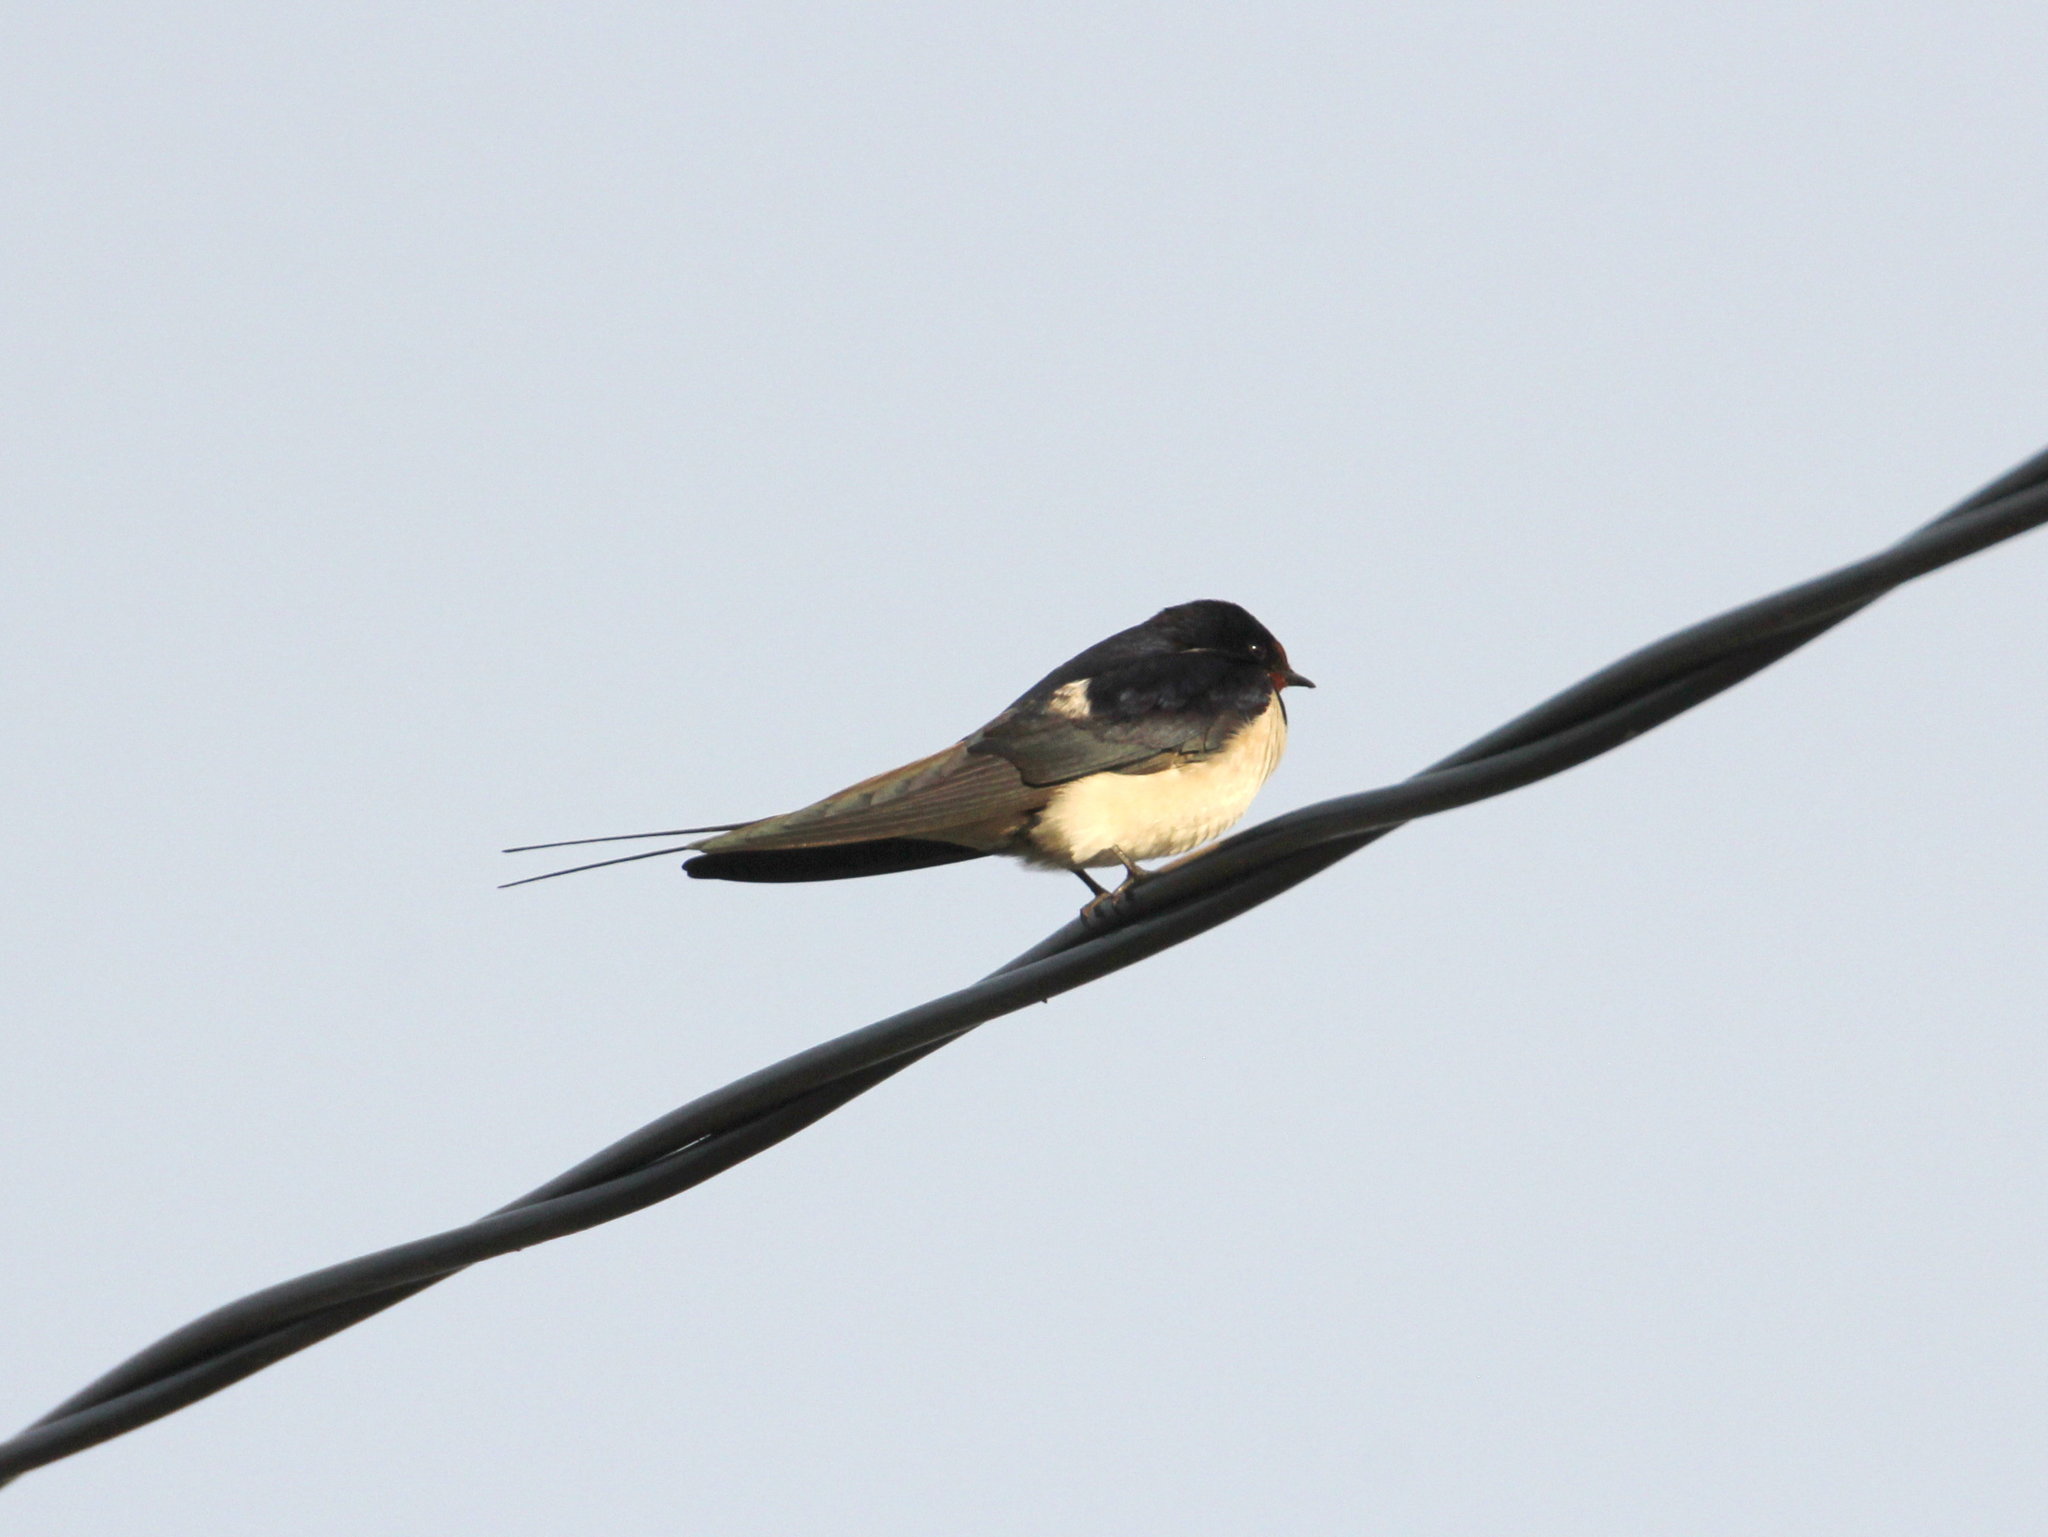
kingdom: Animalia
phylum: Chordata
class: Aves
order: Passeriformes
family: Hirundinidae
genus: Hirundo
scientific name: Hirundo rustica
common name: Barn swallow
